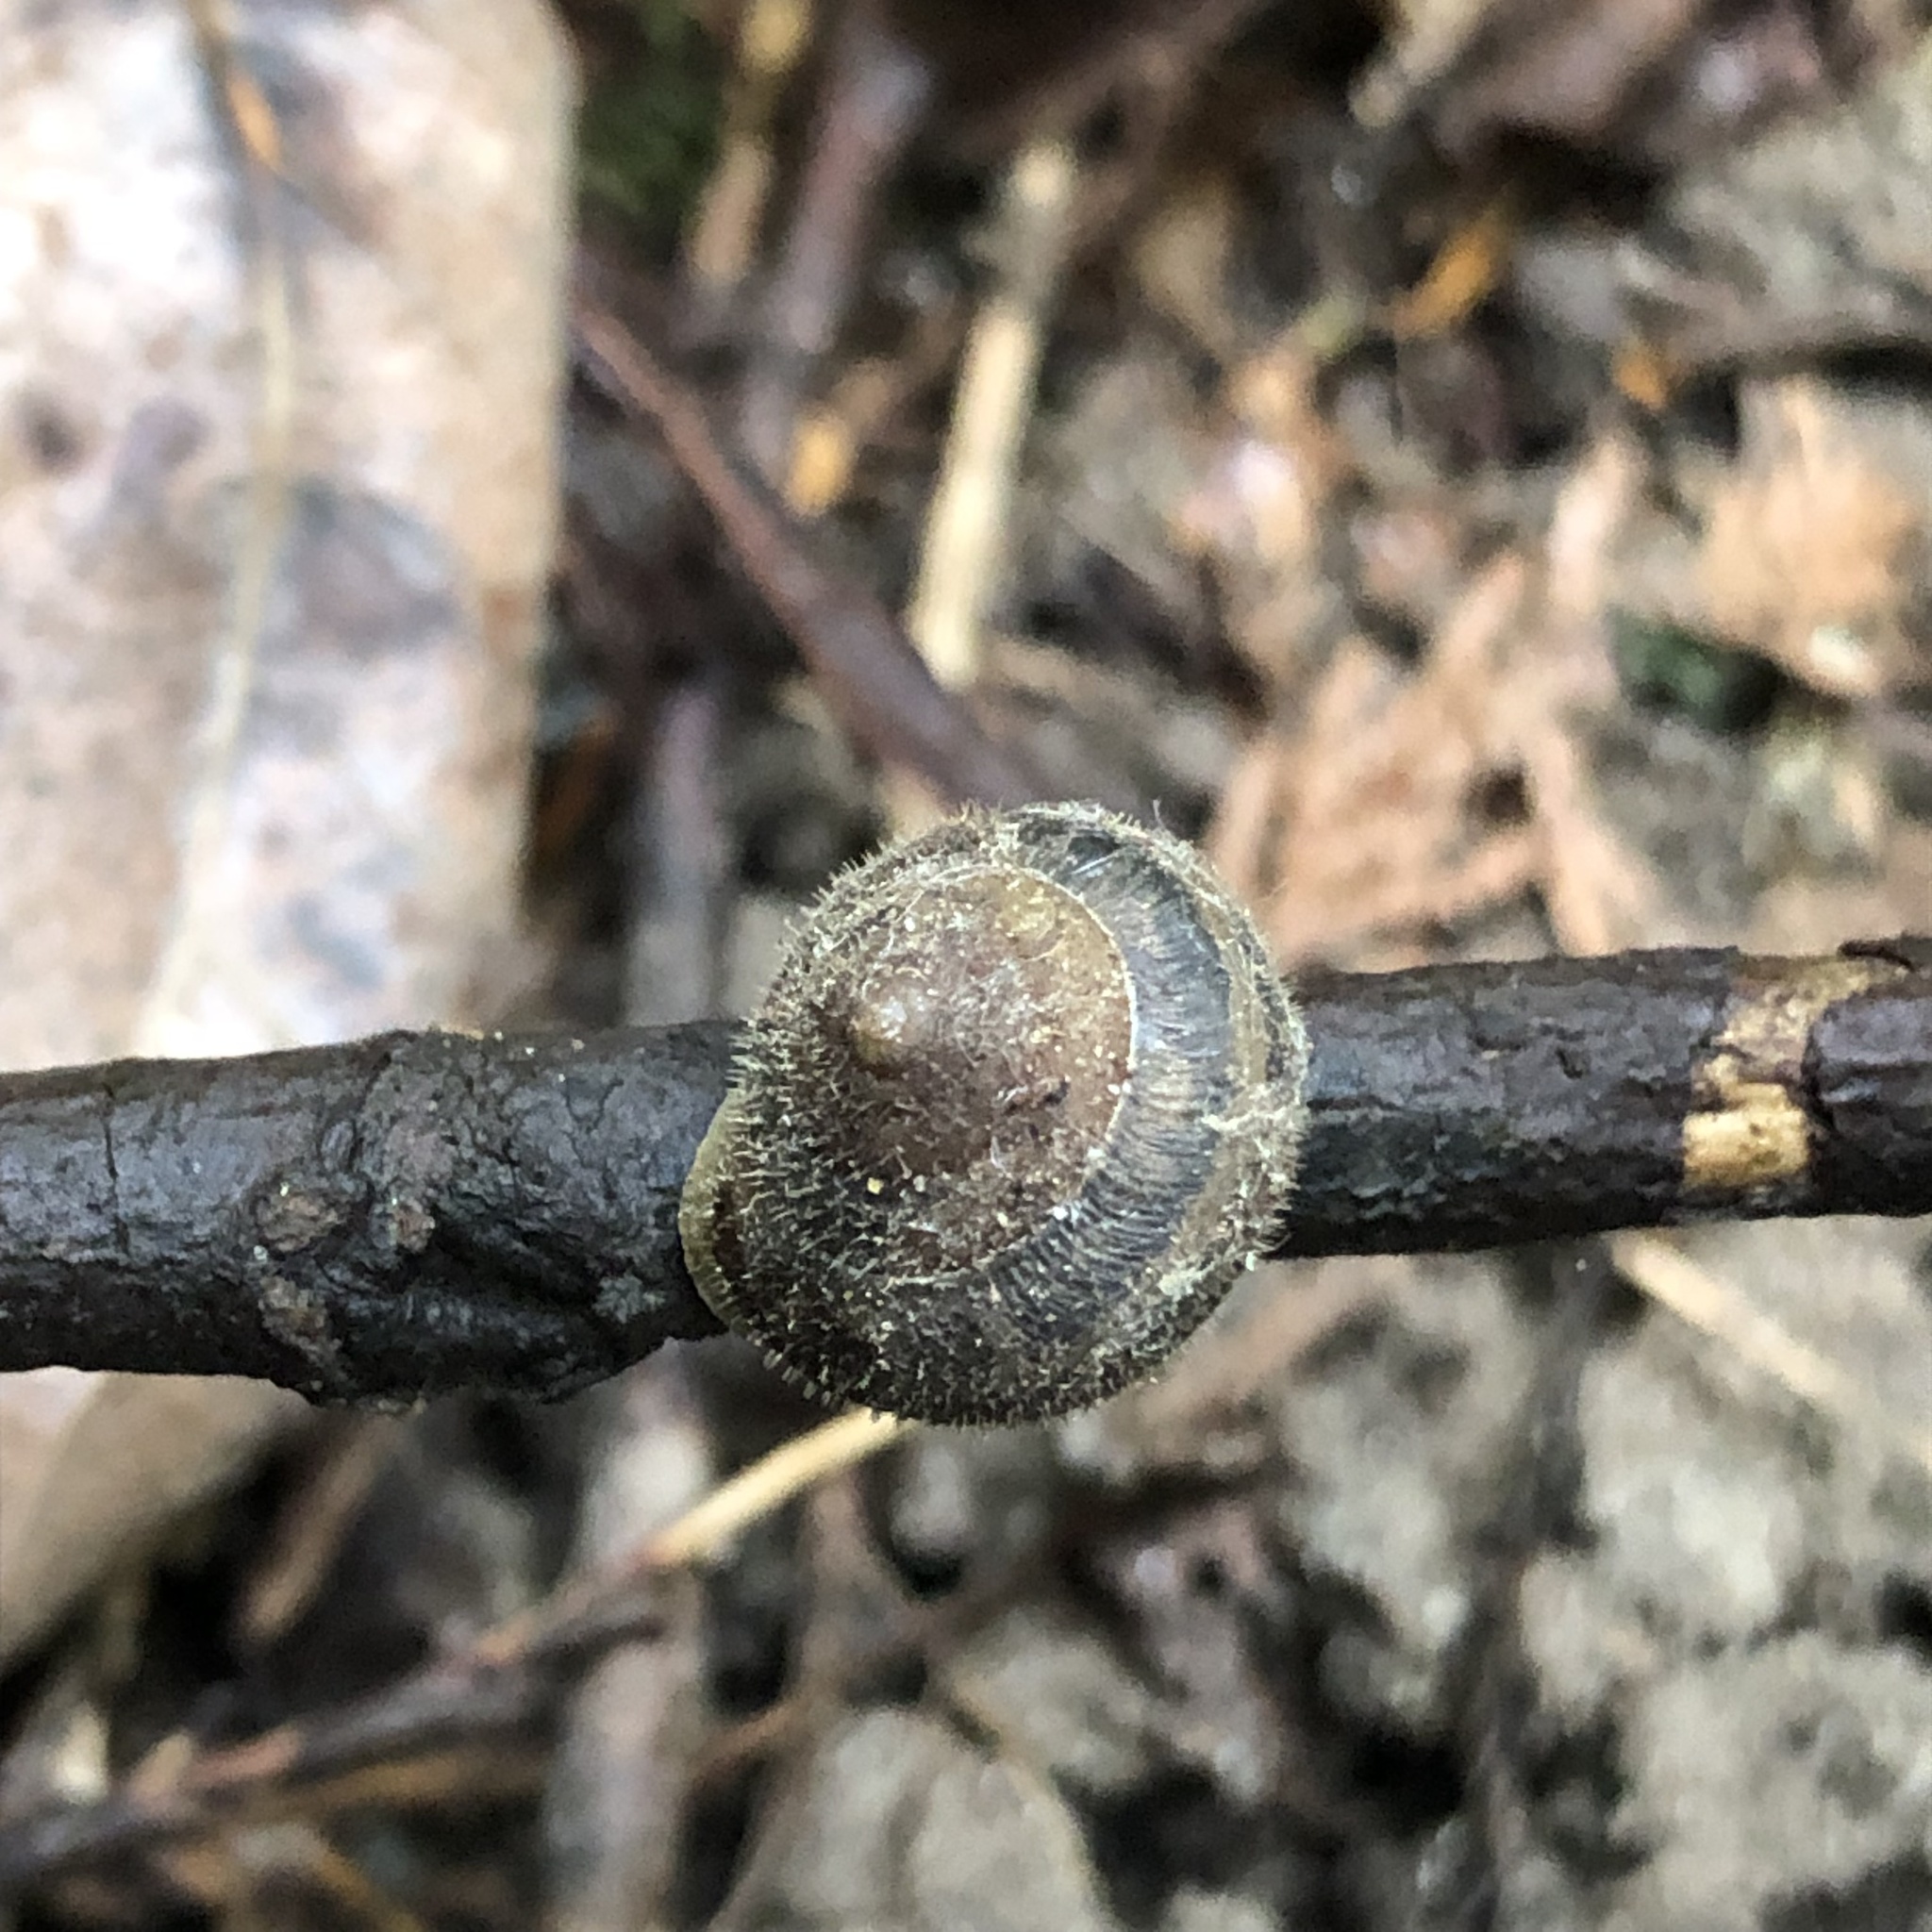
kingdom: Animalia
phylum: Mollusca
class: Gastropoda
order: Stylommatophora
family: Polygyridae
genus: Vespericola
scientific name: Vespericola columbianus
